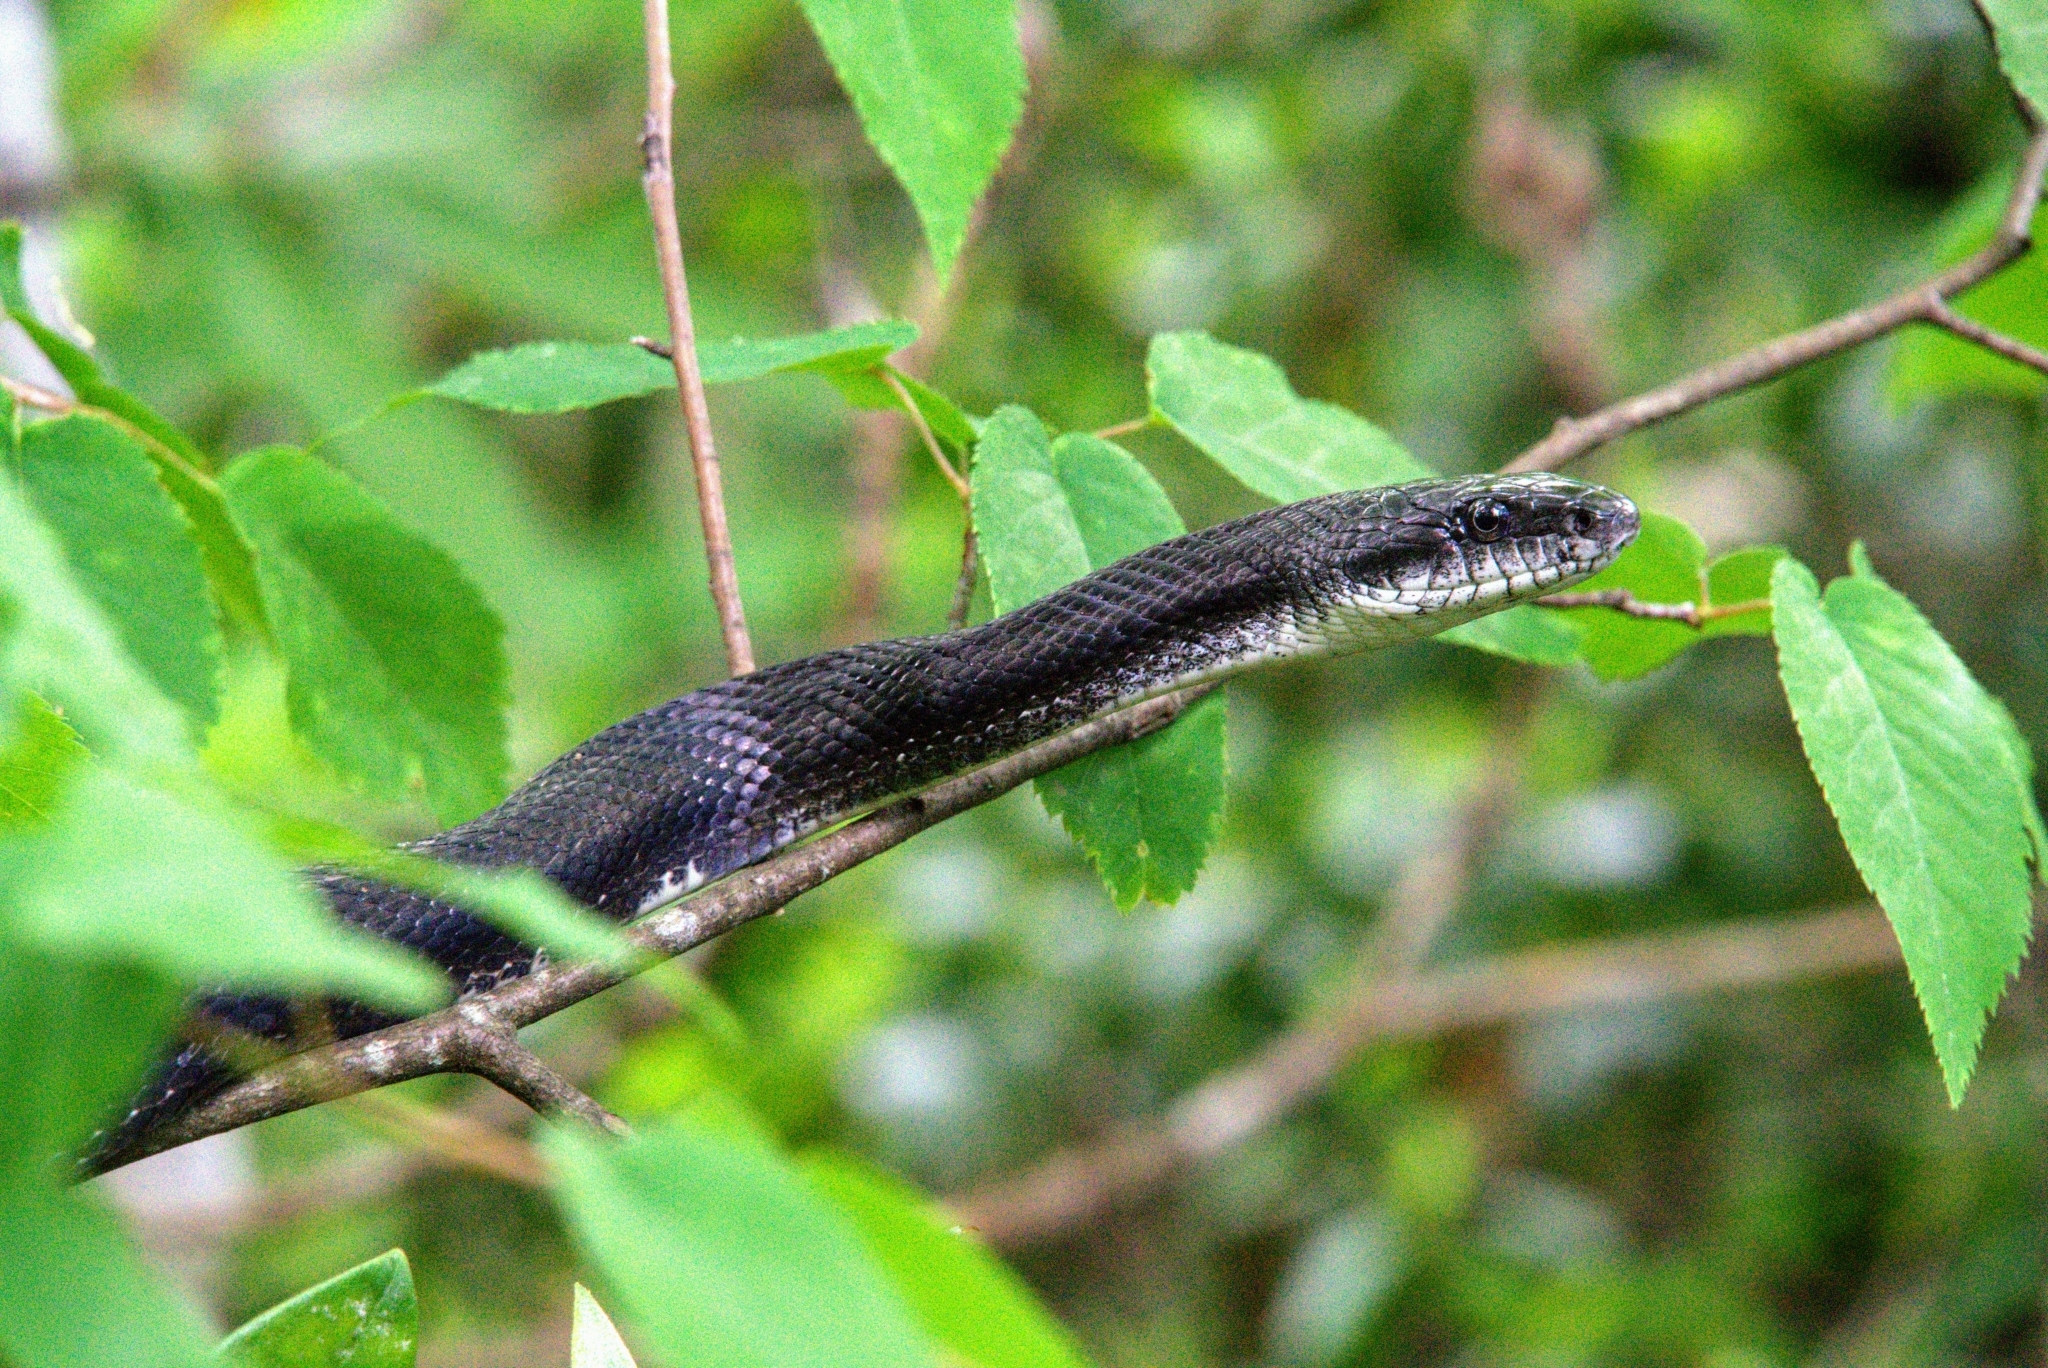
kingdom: Animalia
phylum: Chordata
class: Squamata
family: Colubridae
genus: Pantherophis
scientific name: Pantherophis alleghaniensis
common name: Eastern rat snake
